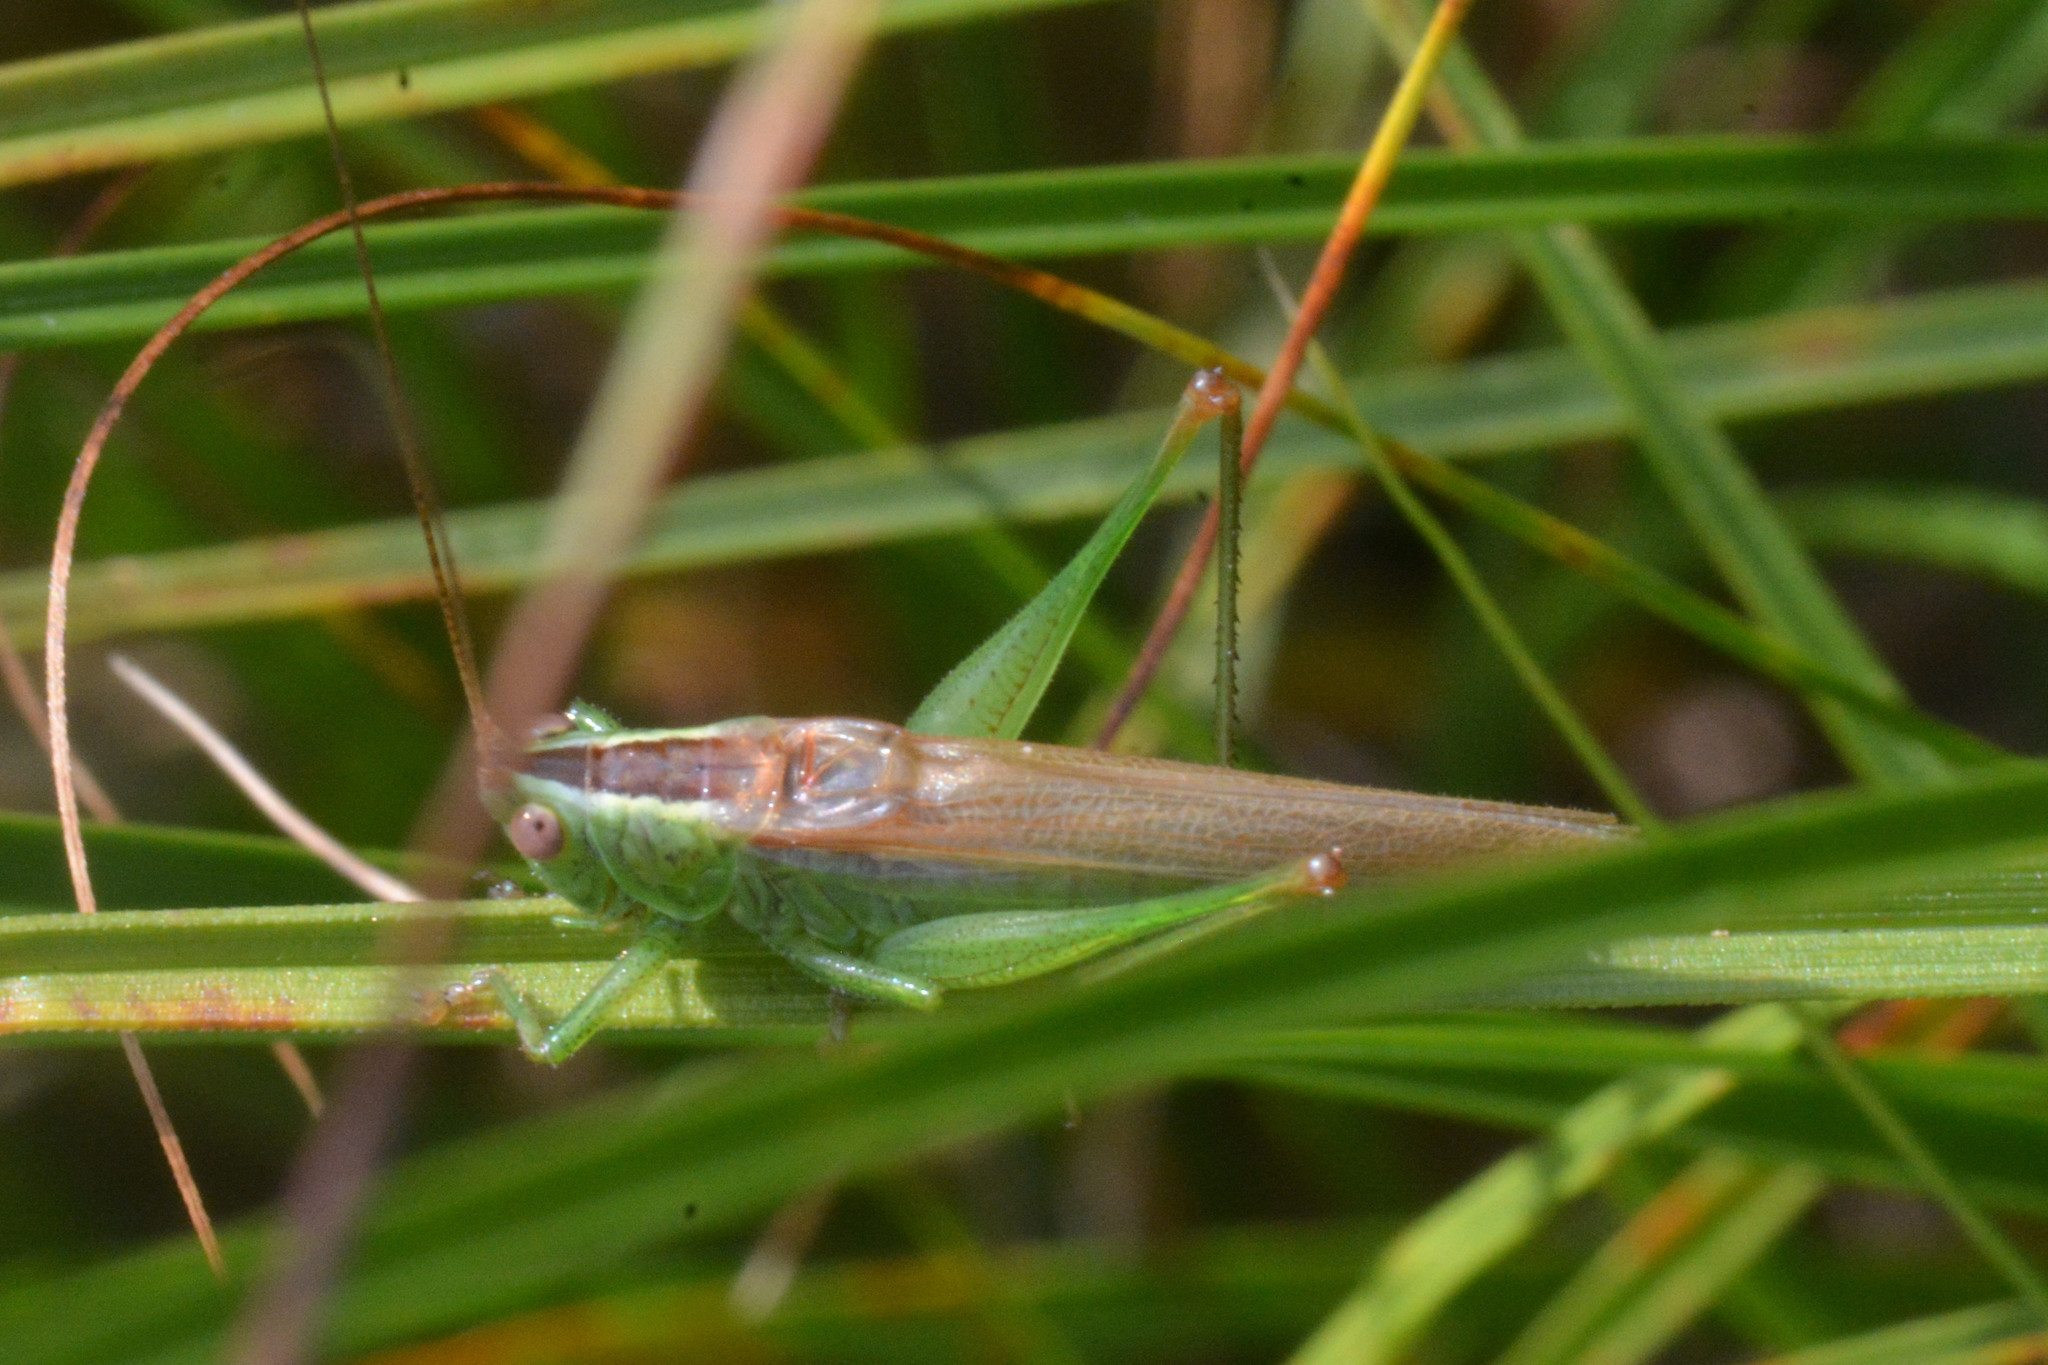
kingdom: Animalia
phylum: Arthropoda
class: Insecta
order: Orthoptera
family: Tettigoniidae
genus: Conocephalus
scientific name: Conocephalus fuscus
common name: Long-winged conehead
